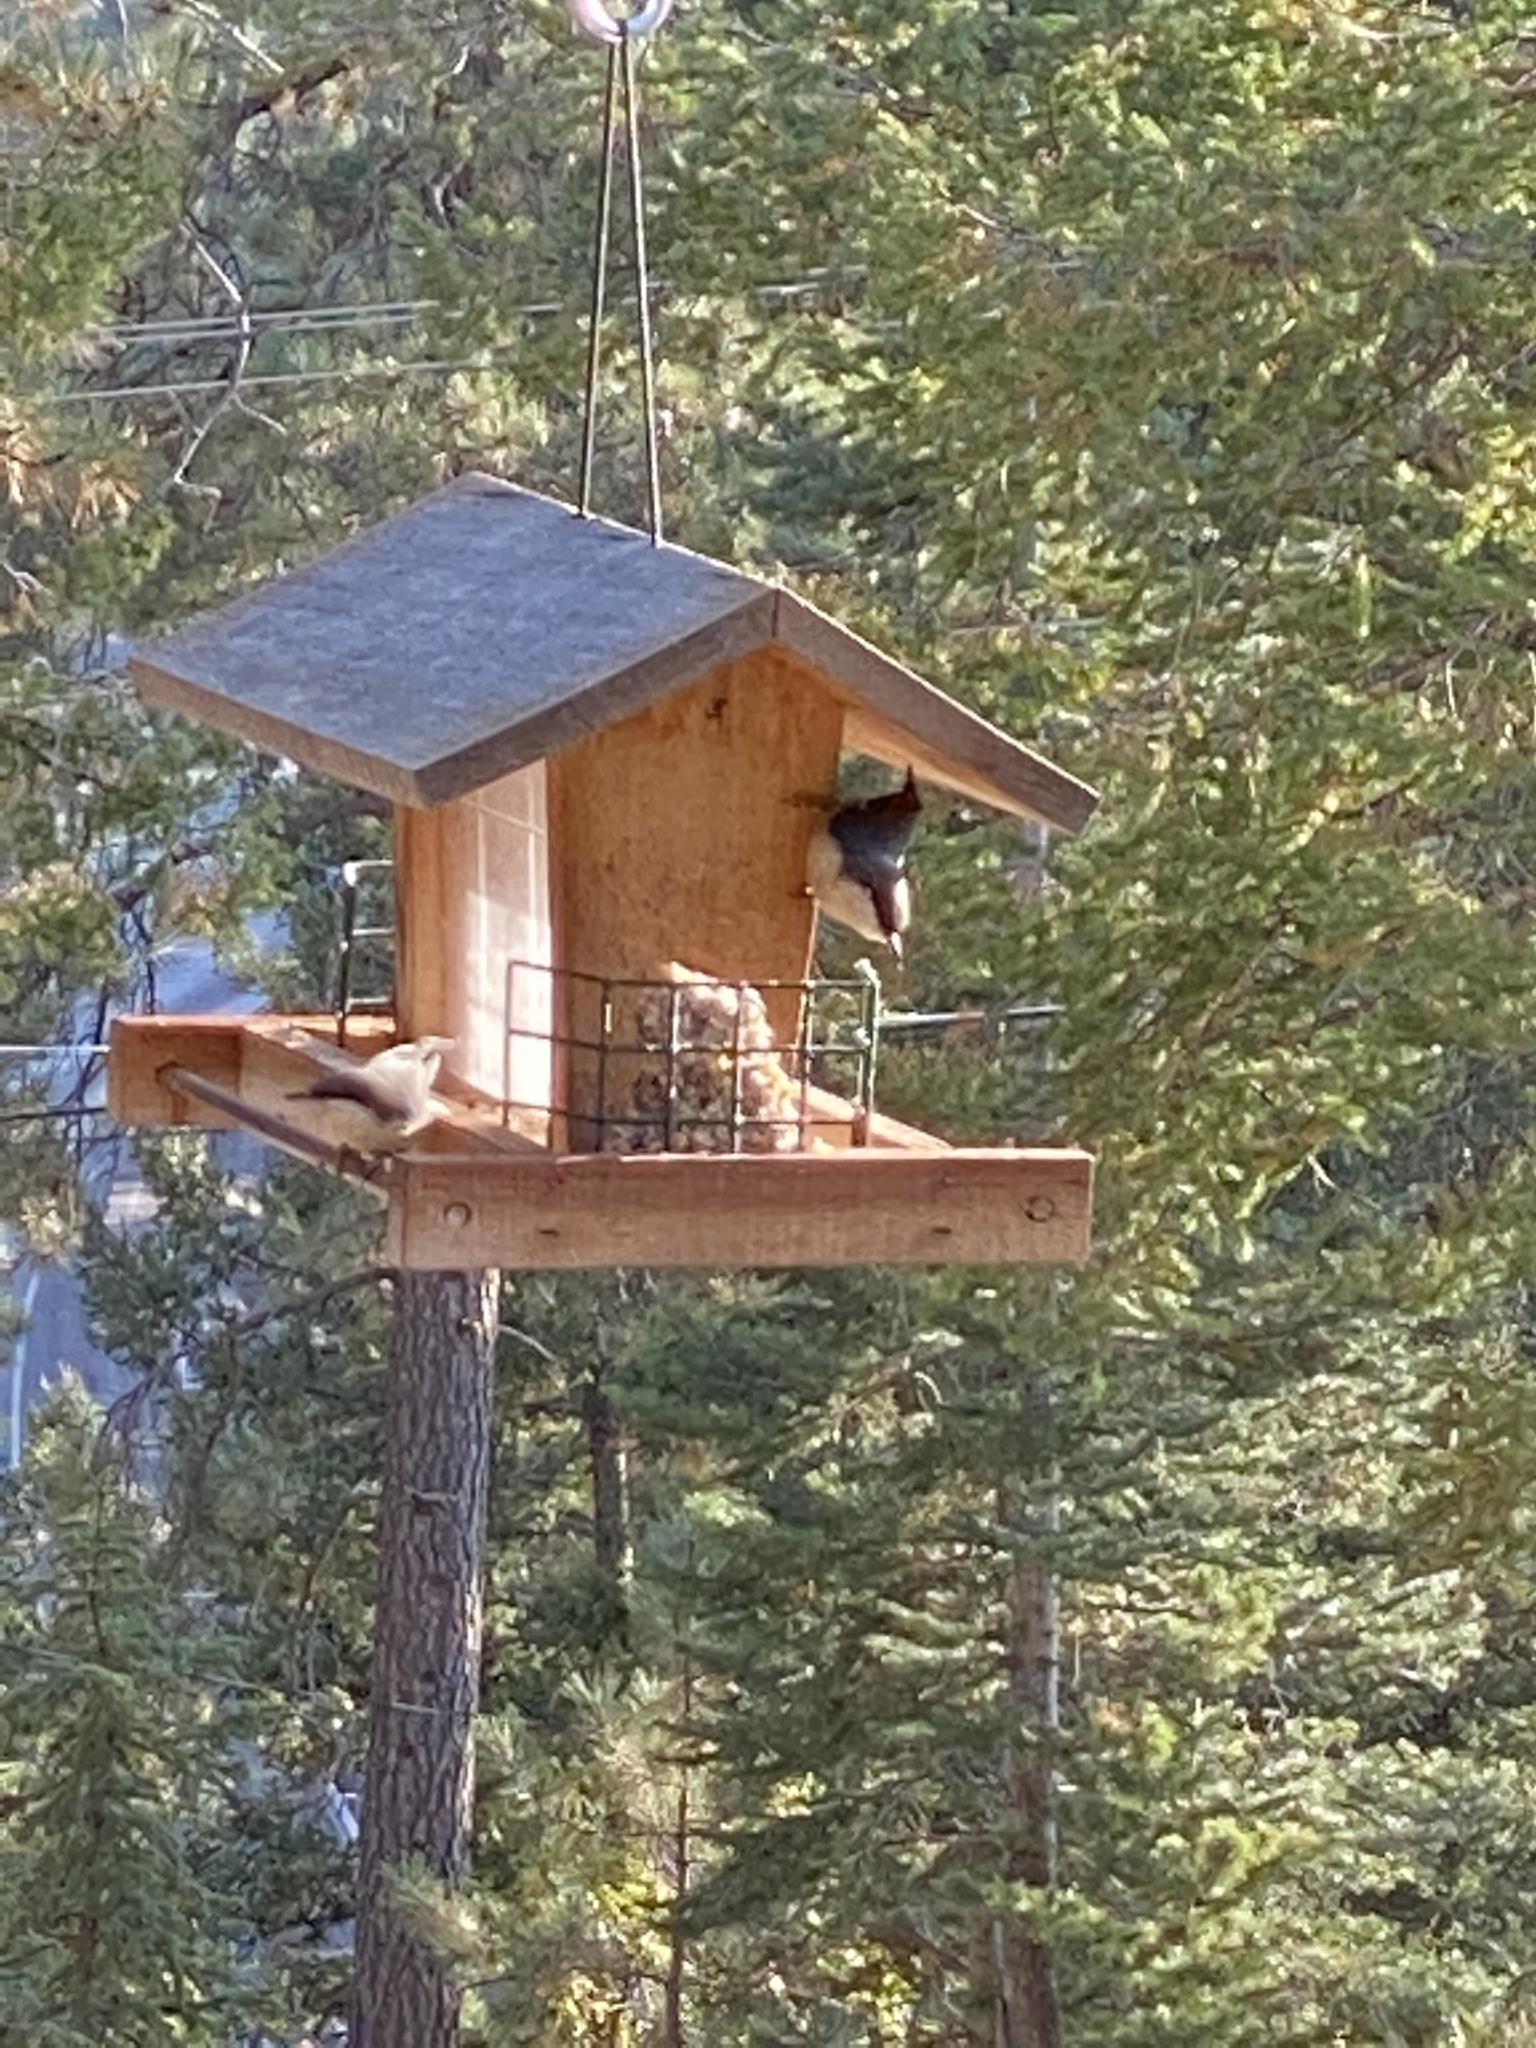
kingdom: Animalia
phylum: Chordata
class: Aves
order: Passeriformes
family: Sittidae
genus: Sitta
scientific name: Sitta pygmaea
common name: Pygmy nuthatch
